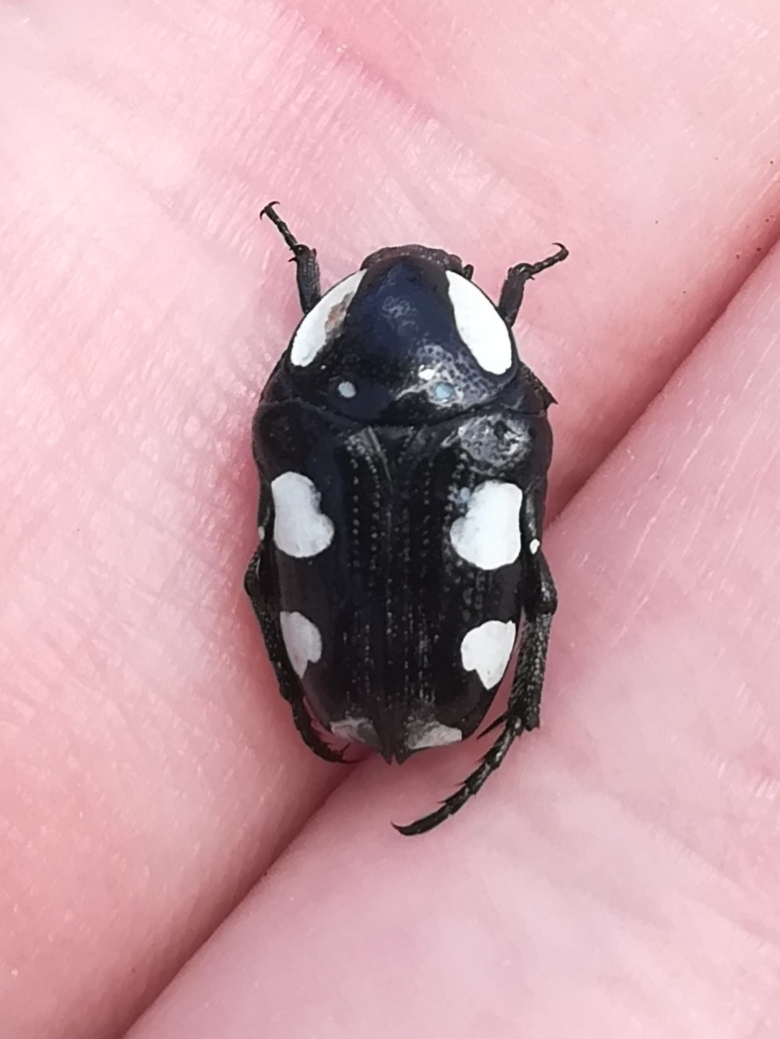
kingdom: Animalia
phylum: Arthropoda
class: Insecta
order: Coleoptera
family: Scarabaeidae
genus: Mausoleopsis
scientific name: Mausoleopsis amabilis
